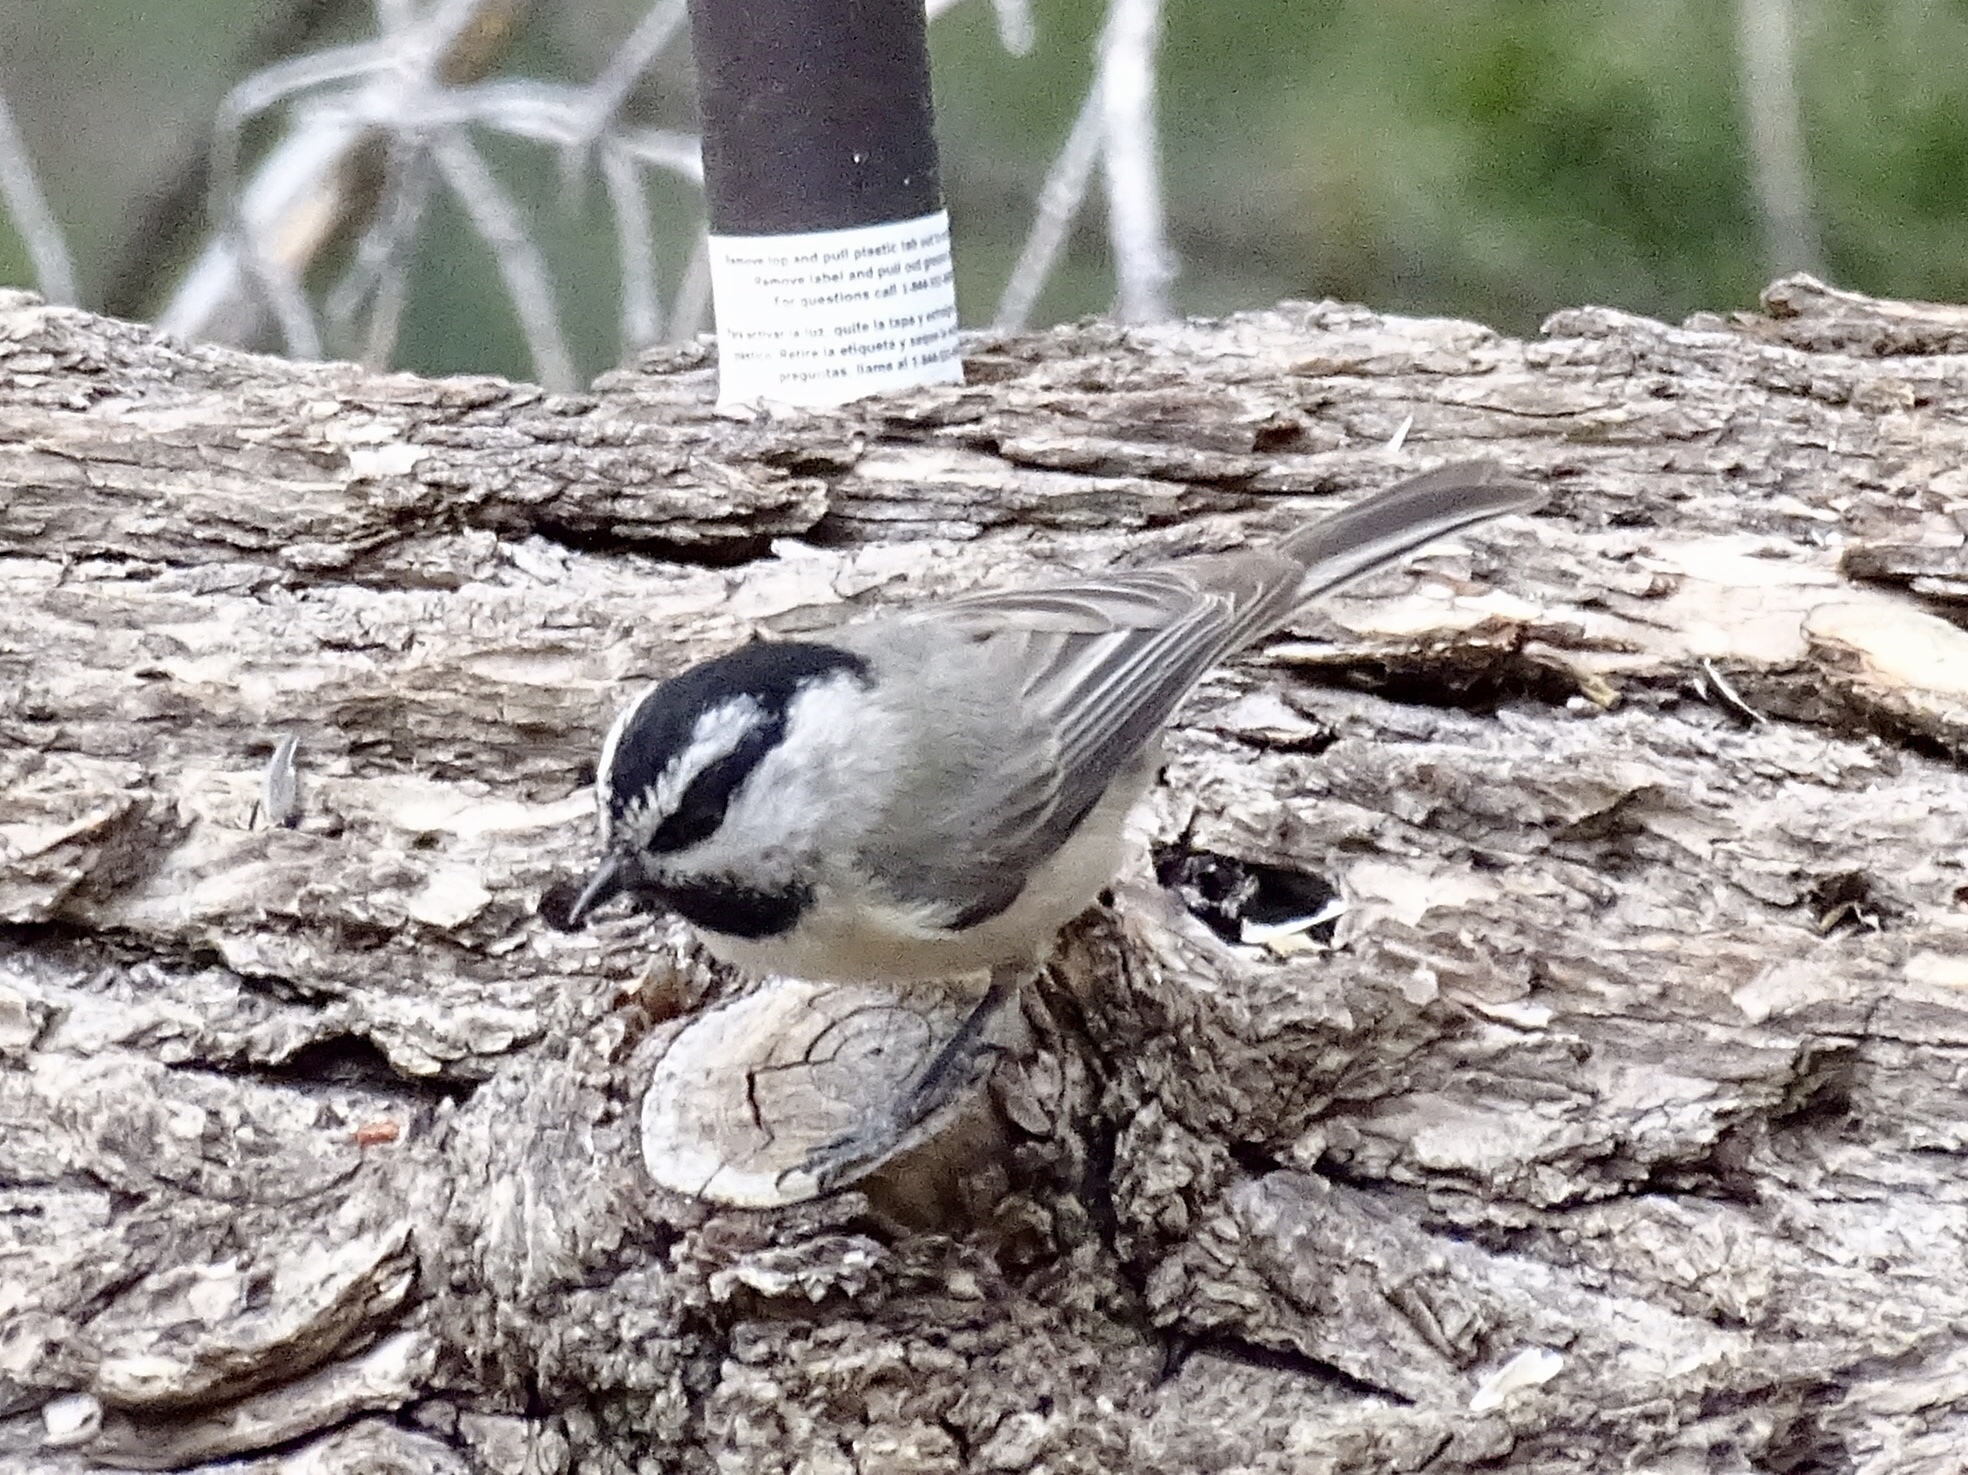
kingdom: Animalia
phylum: Chordata
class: Aves
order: Passeriformes
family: Paridae
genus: Poecile
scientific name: Poecile gambeli
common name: Mountain chickadee
